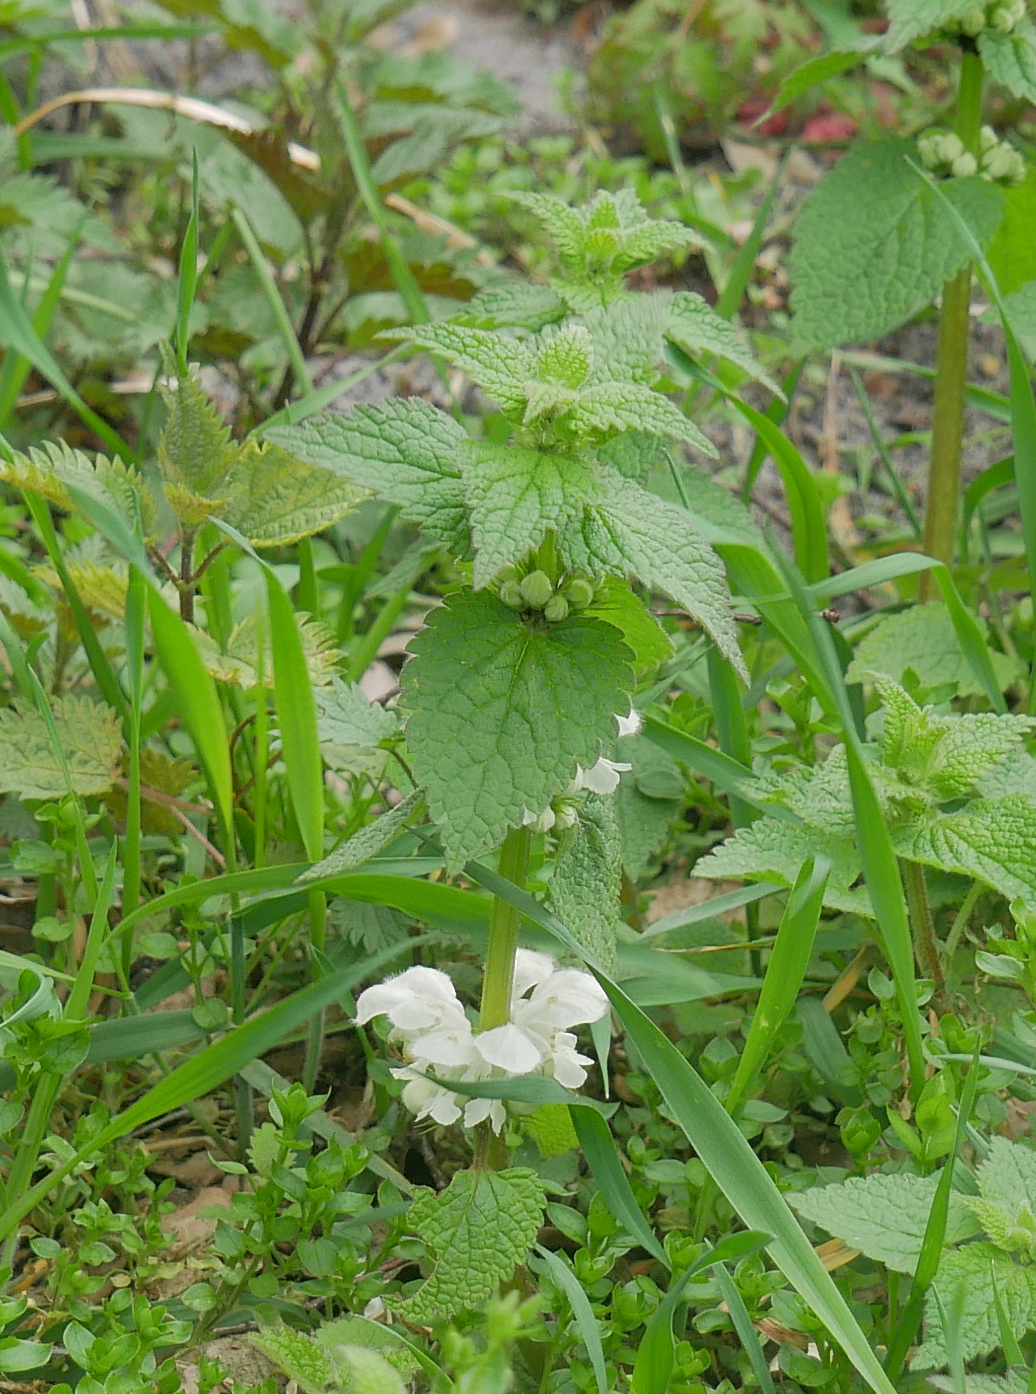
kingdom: Plantae
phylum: Tracheophyta
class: Magnoliopsida
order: Lamiales
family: Lamiaceae
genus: Lamium
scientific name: Lamium album
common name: White dead-nettle
